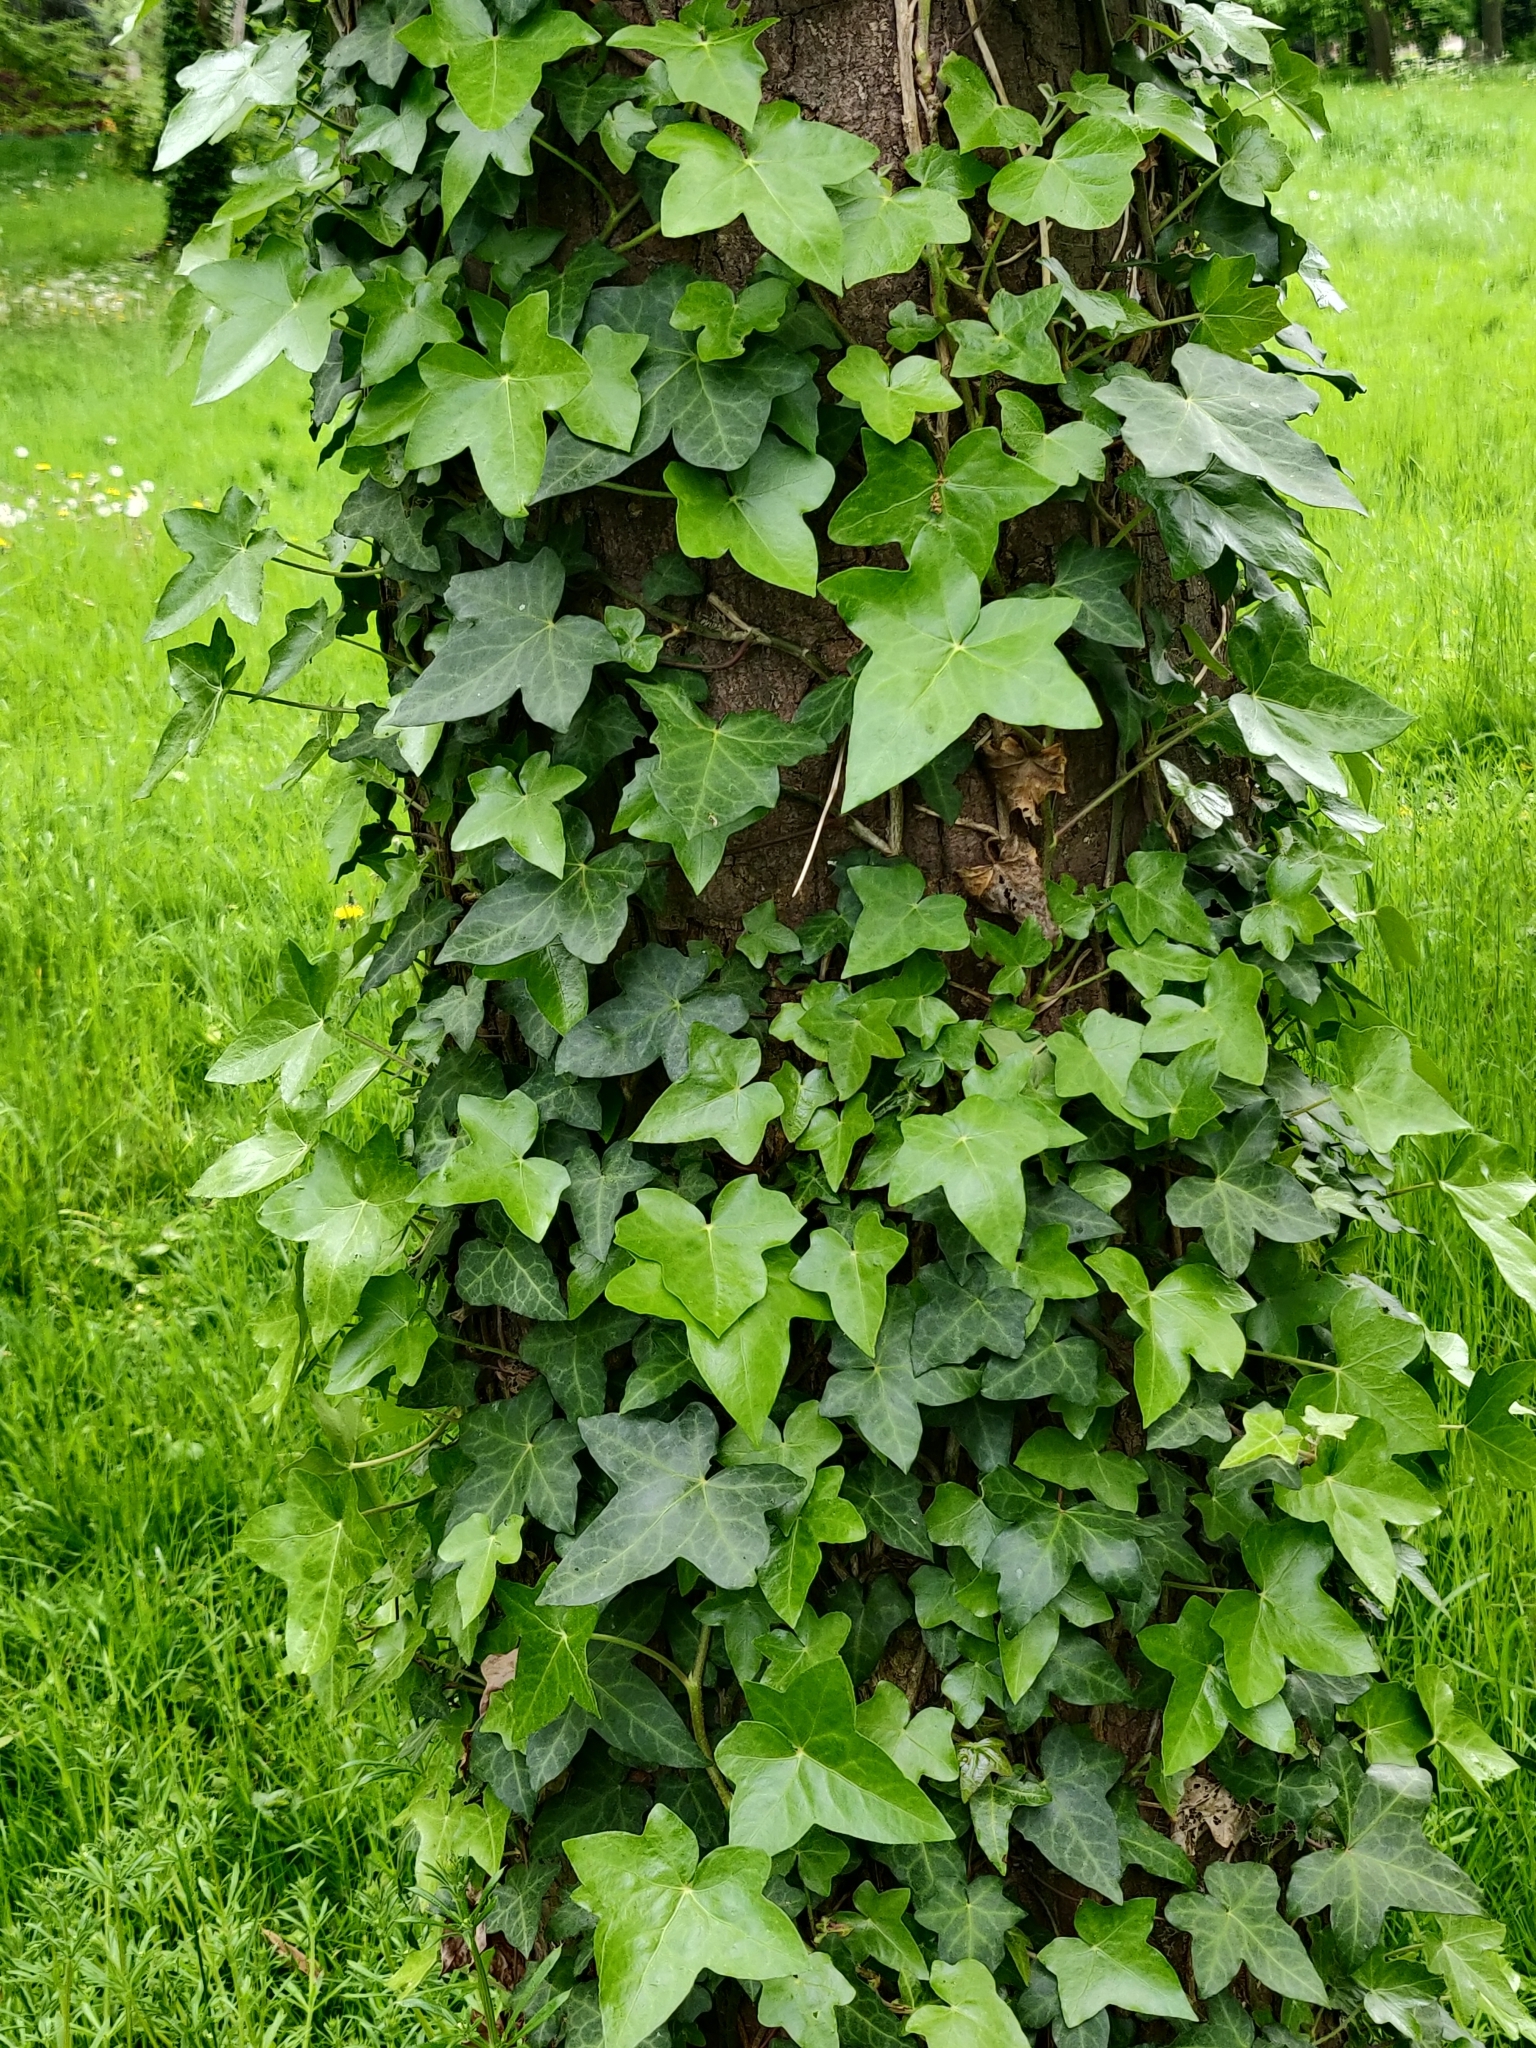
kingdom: Plantae
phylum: Tracheophyta
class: Magnoliopsida
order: Apiales
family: Araliaceae
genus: Hedera
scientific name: Hedera helix
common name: Ivy
